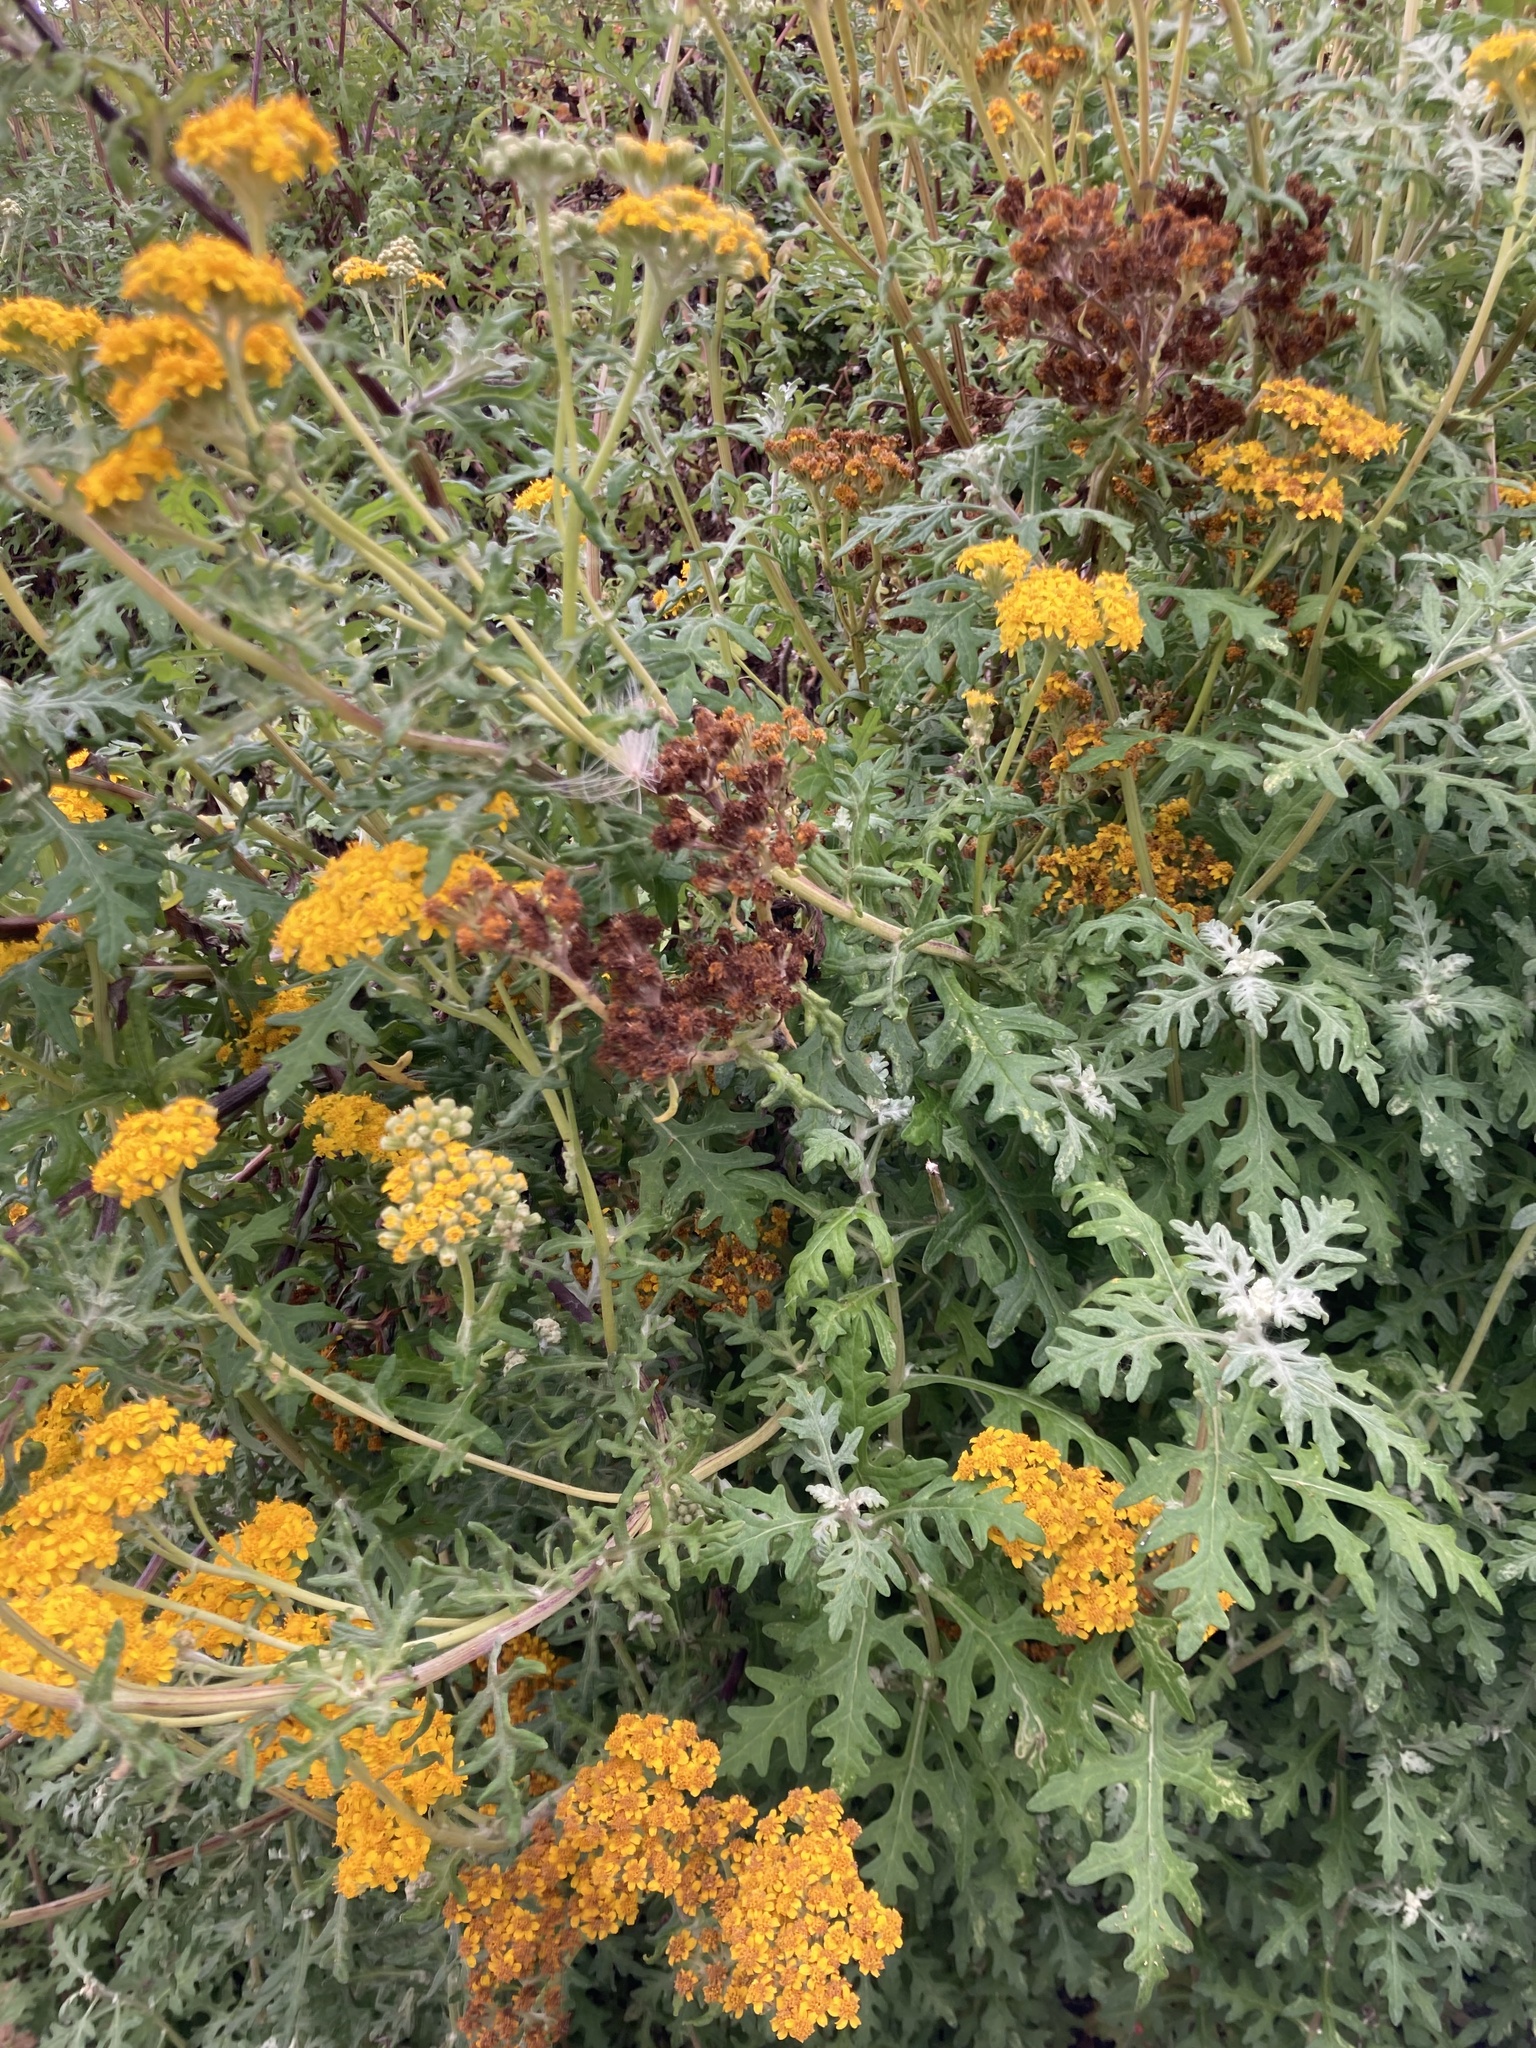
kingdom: Plantae
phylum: Tracheophyta
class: Magnoliopsida
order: Asterales
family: Asteraceae
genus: Eriophyllum
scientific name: Eriophyllum staechadifolium
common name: Lizardtail
